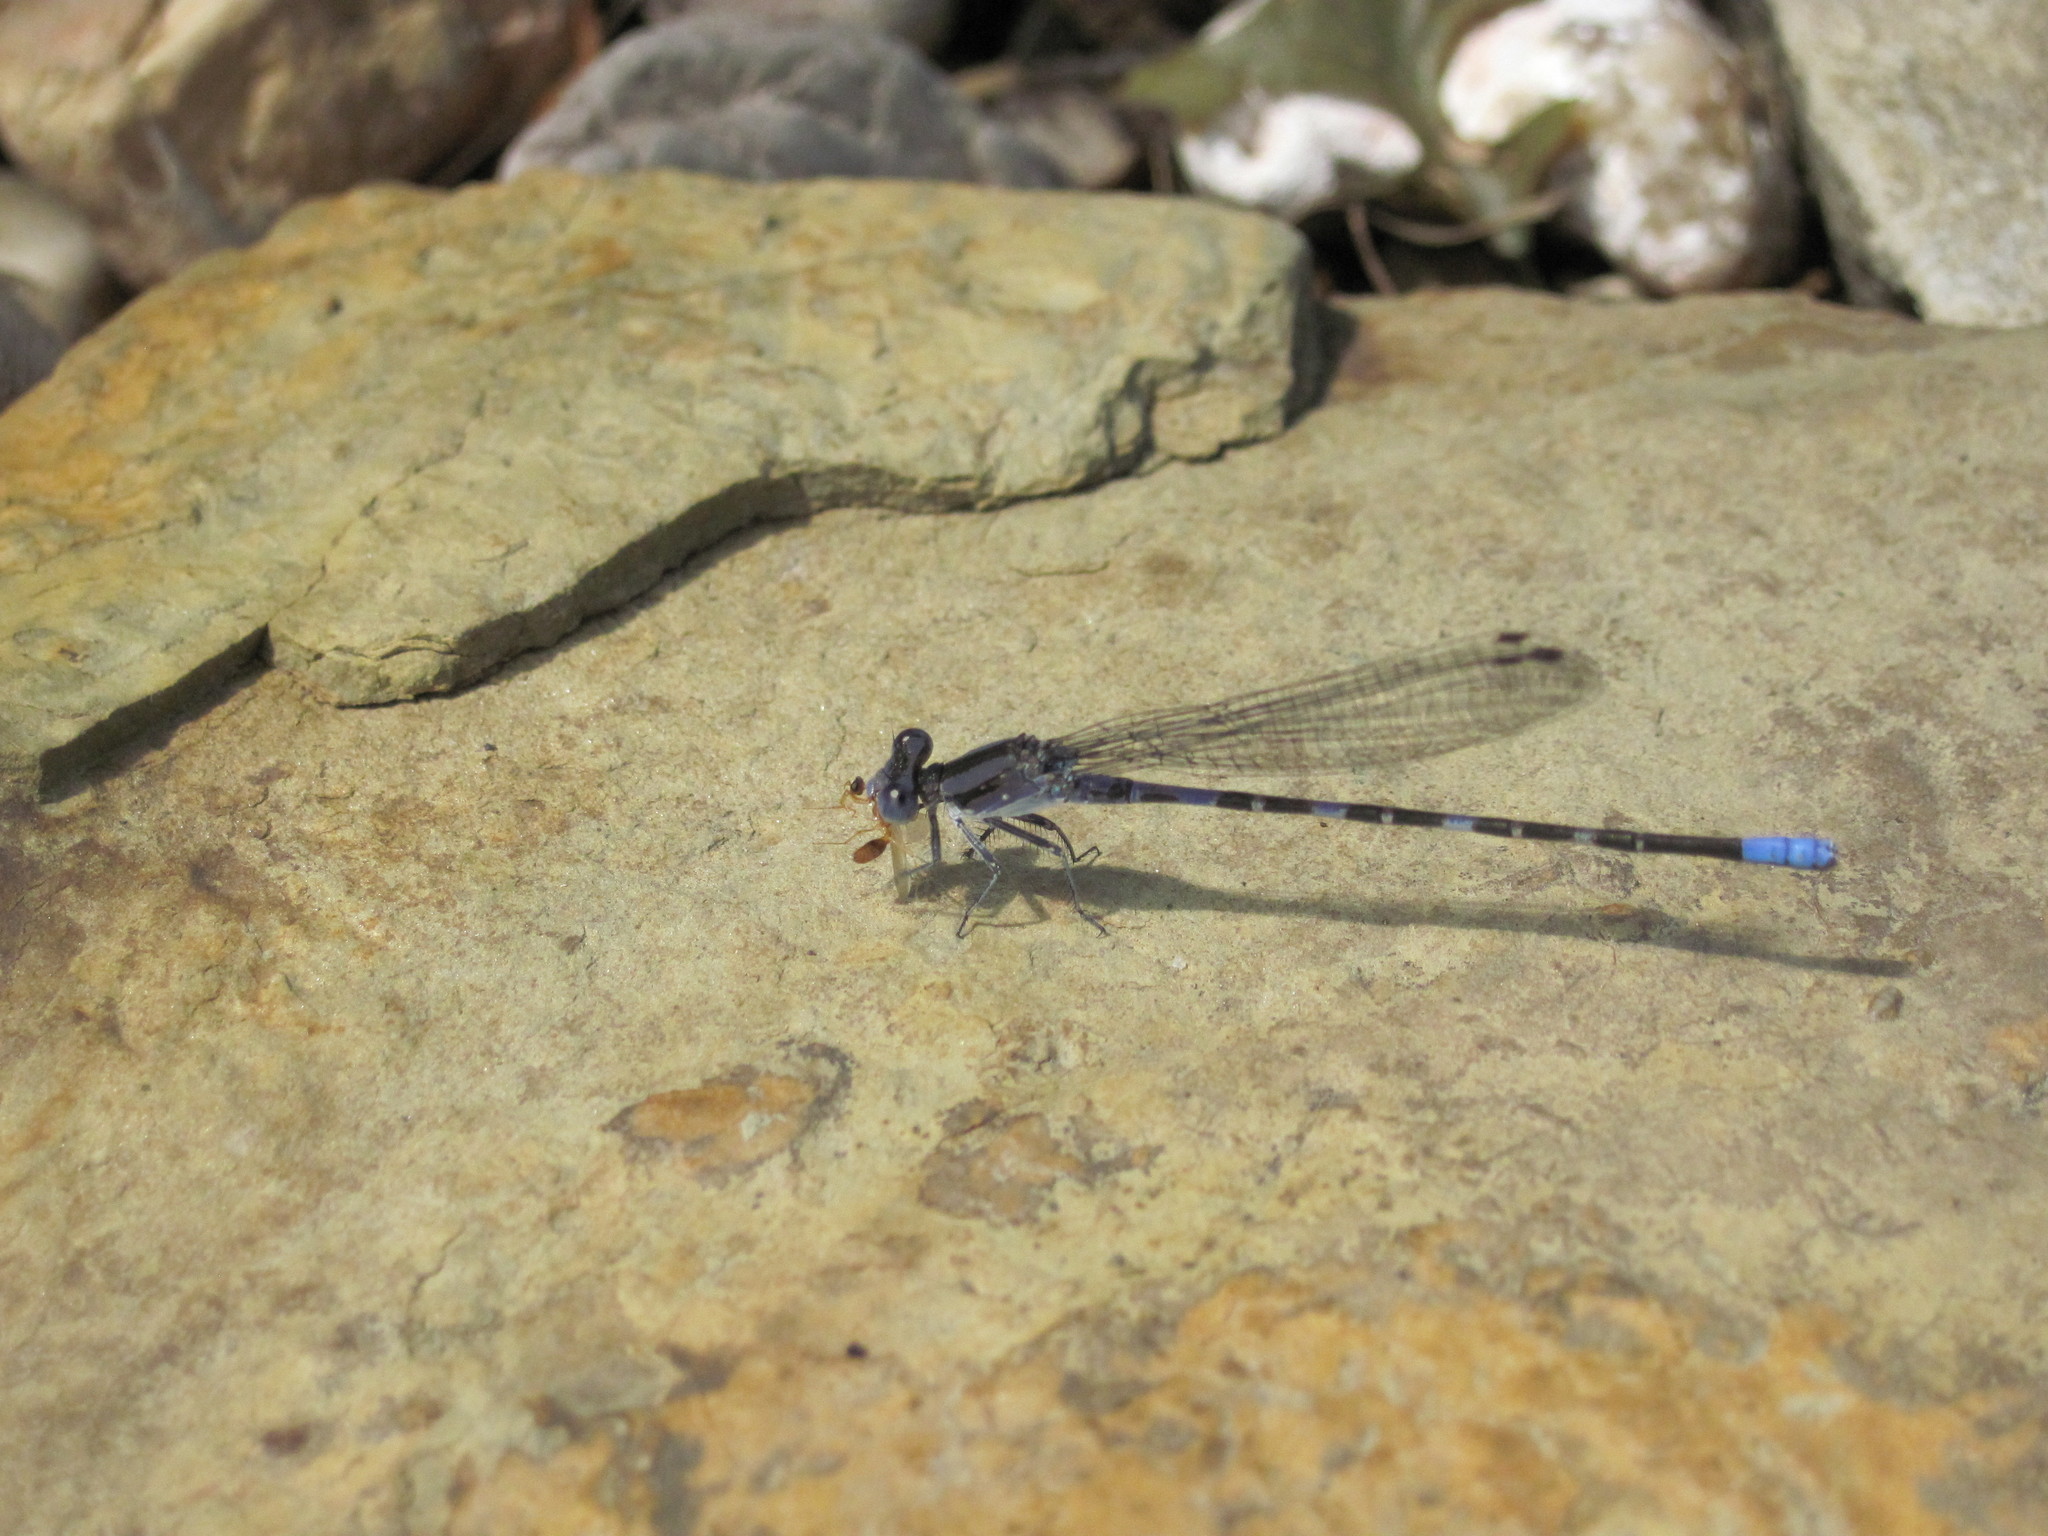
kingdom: Animalia
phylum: Arthropoda
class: Insecta
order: Odonata
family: Coenagrionidae
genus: Argia
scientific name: Argia immunda
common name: Kiowa dancer
